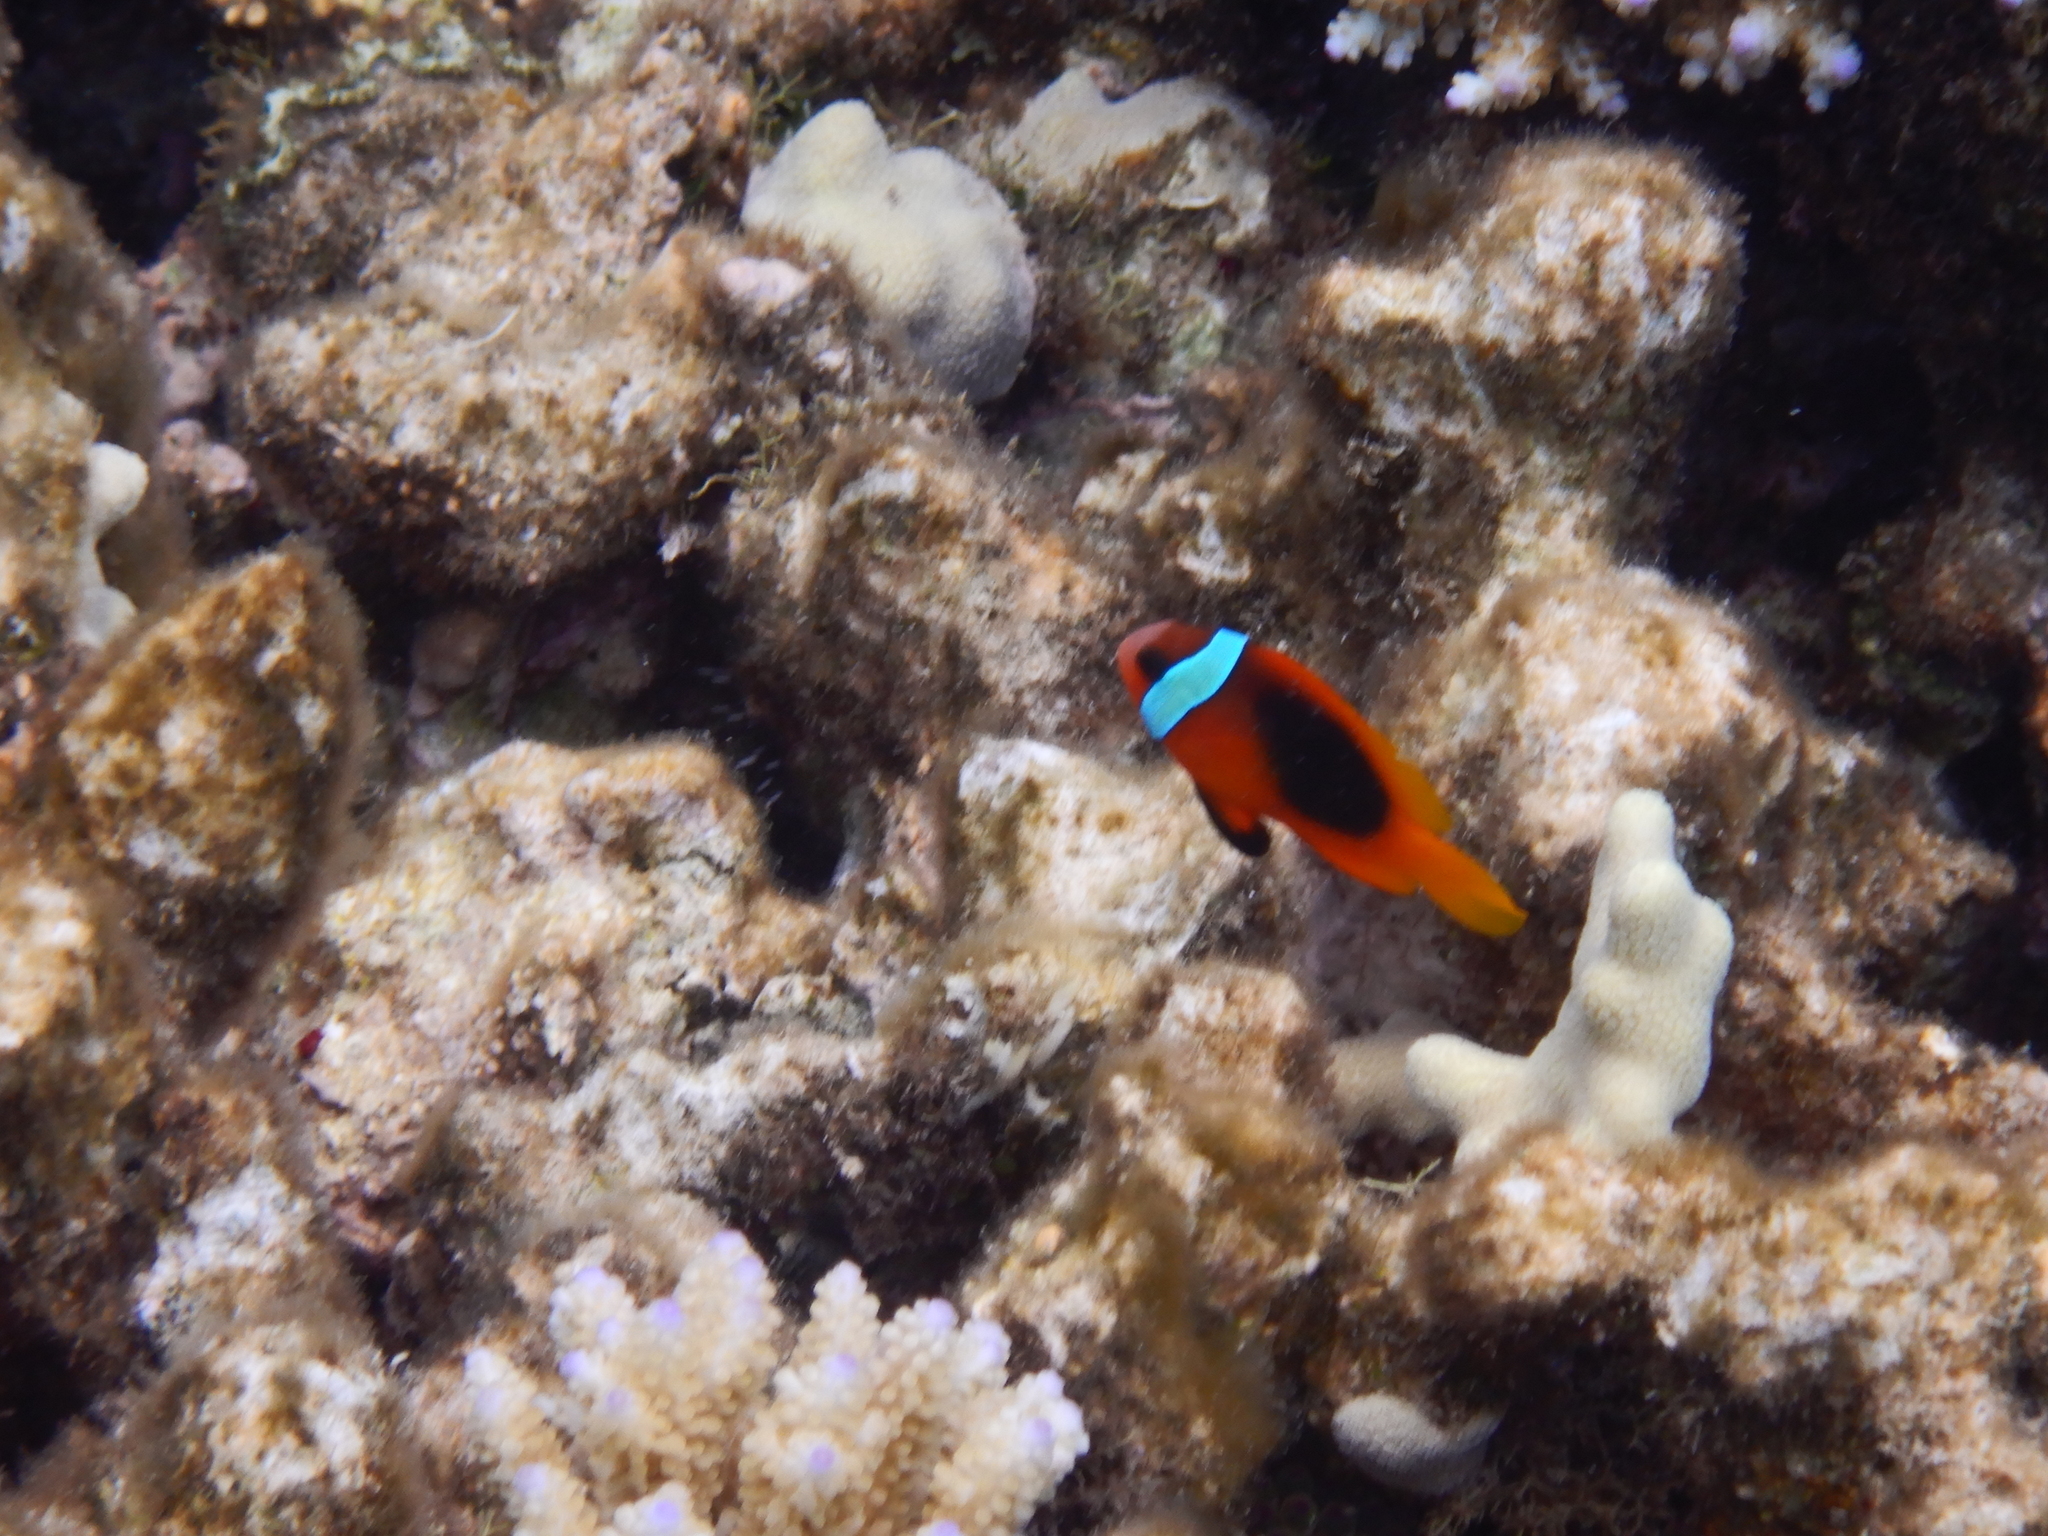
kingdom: Animalia
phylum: Chordata
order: Perciformes
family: Pomacentridae
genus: Amphiprion
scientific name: Amphiprion melanopus
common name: Black anemonefish
